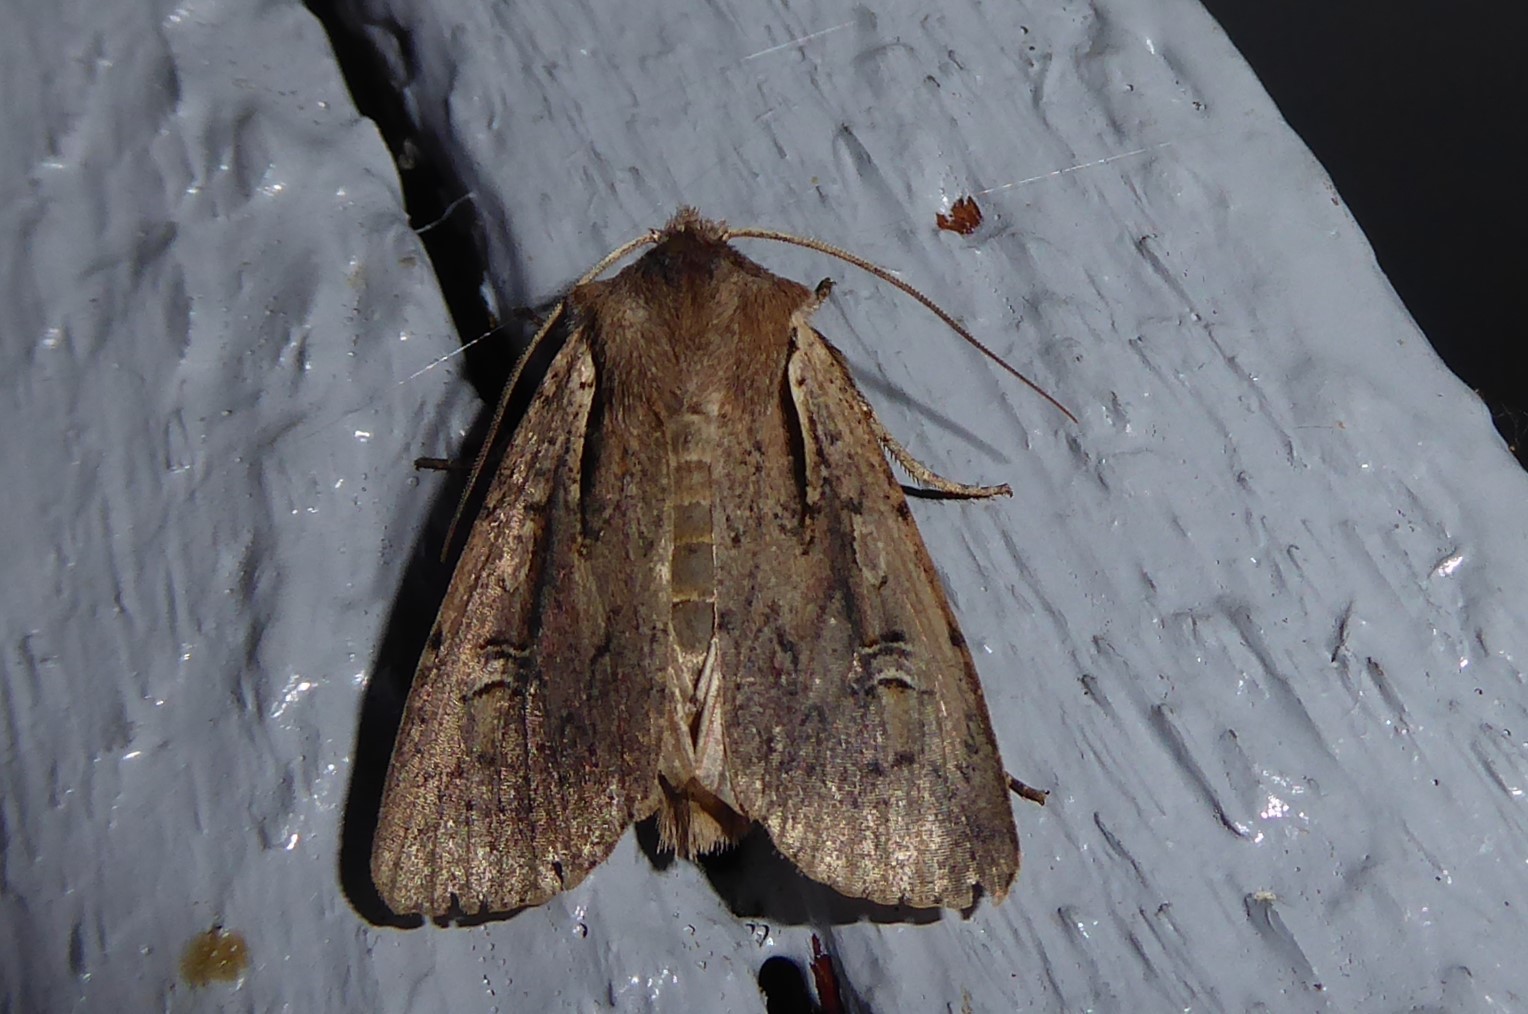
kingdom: Animalia
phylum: Arthropoda
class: Insecta
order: Lepidoptera
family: Noctuidae
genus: Ichneutica
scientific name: Ichneutica atristriga
